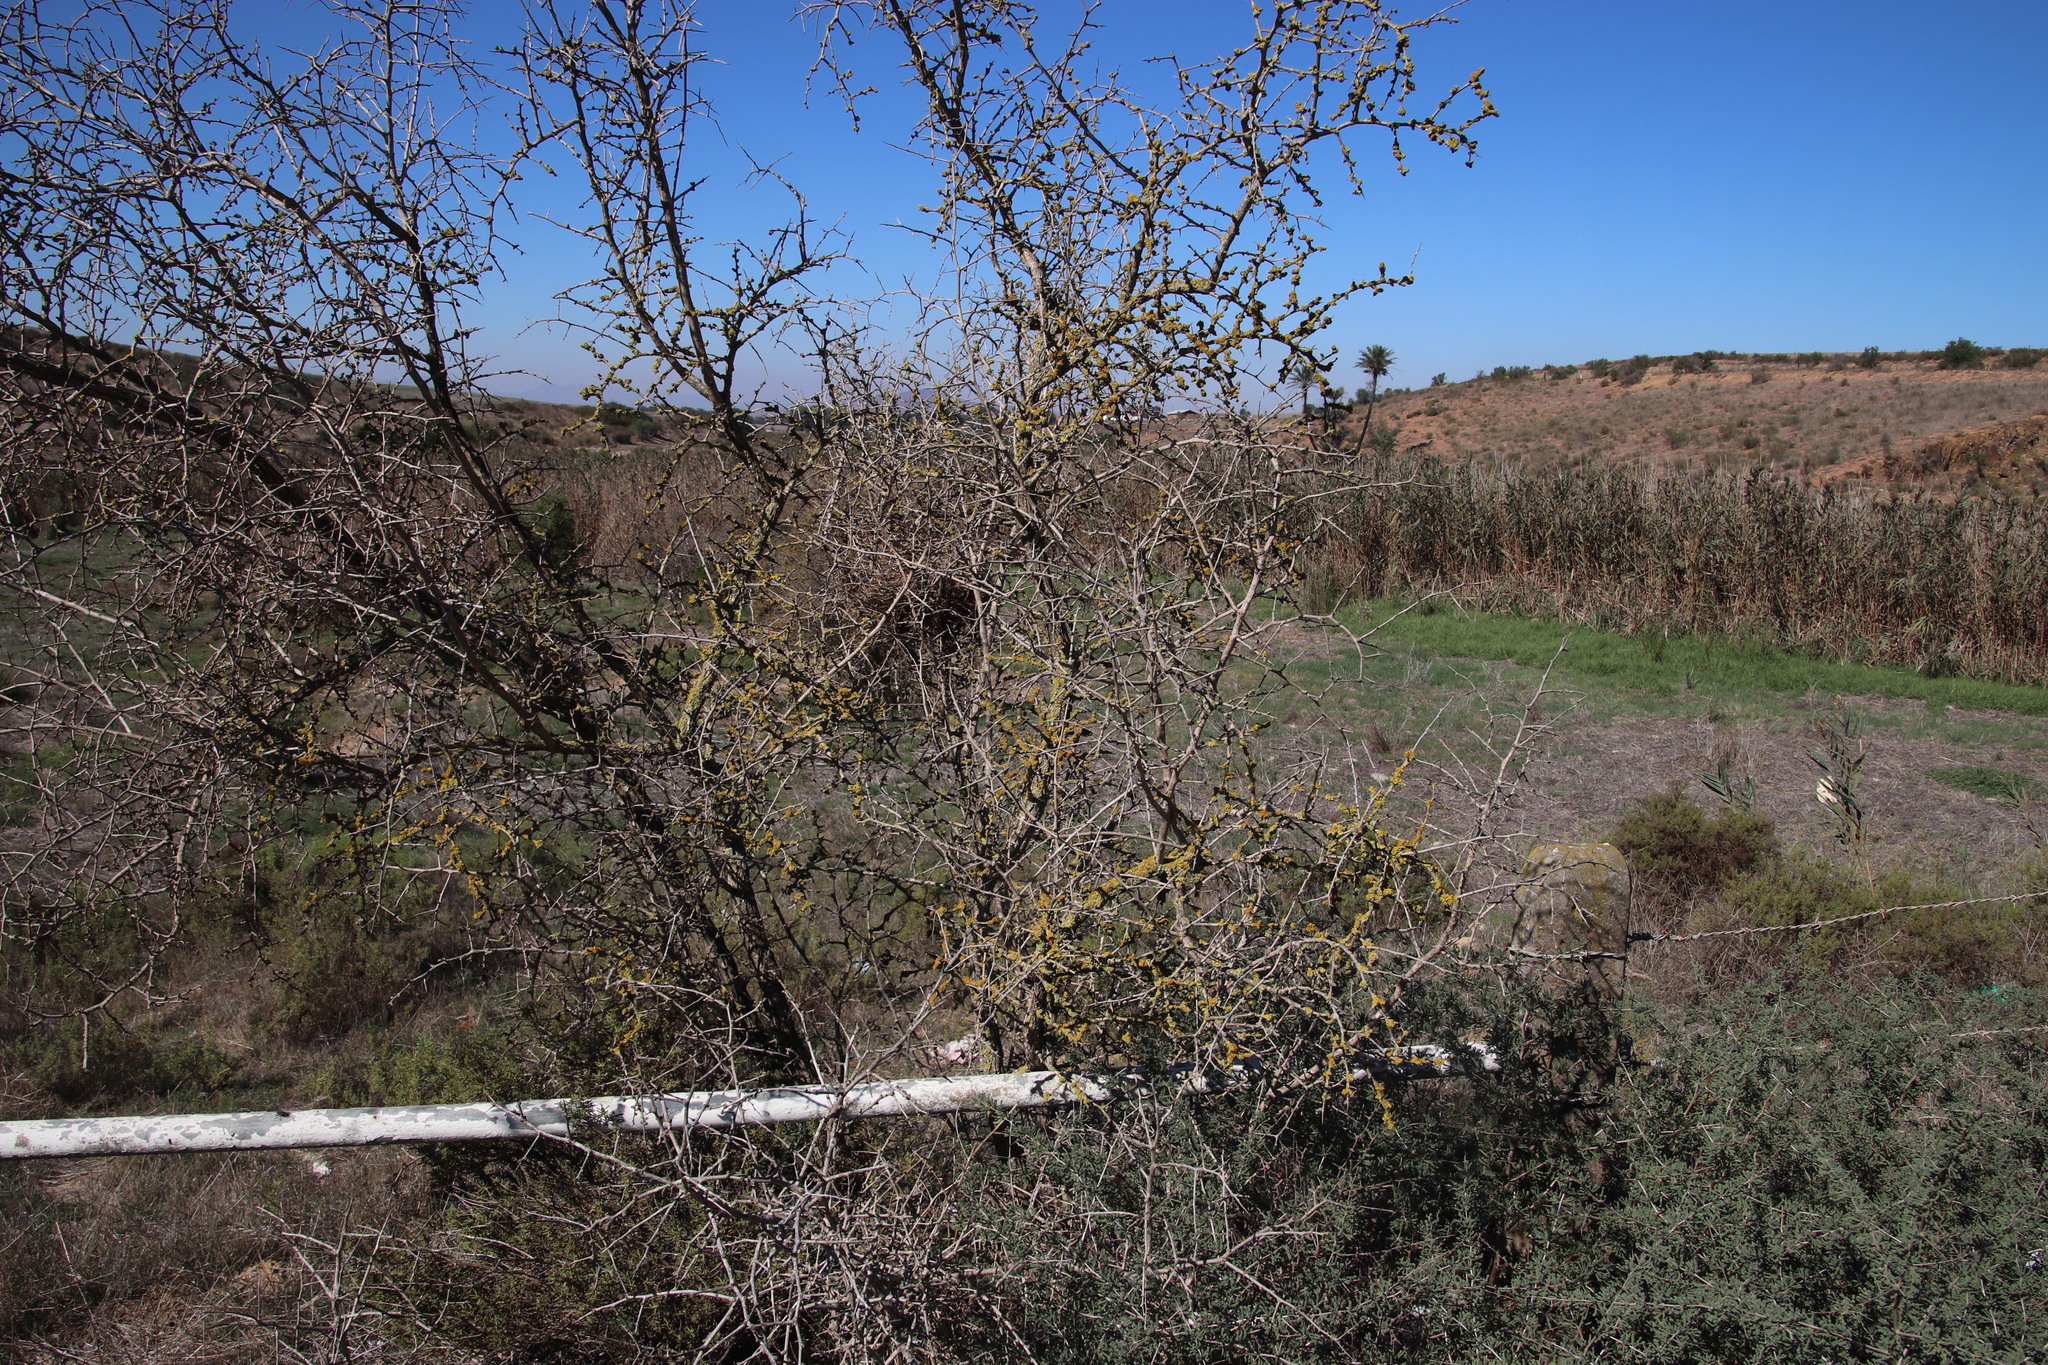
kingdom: Fungi
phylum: Ascomycota
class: Lecanoromycetes
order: Teloschistales
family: Teloschistaceae
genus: Xanthoria
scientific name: Xanthoria parietina
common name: Common orange lichen
